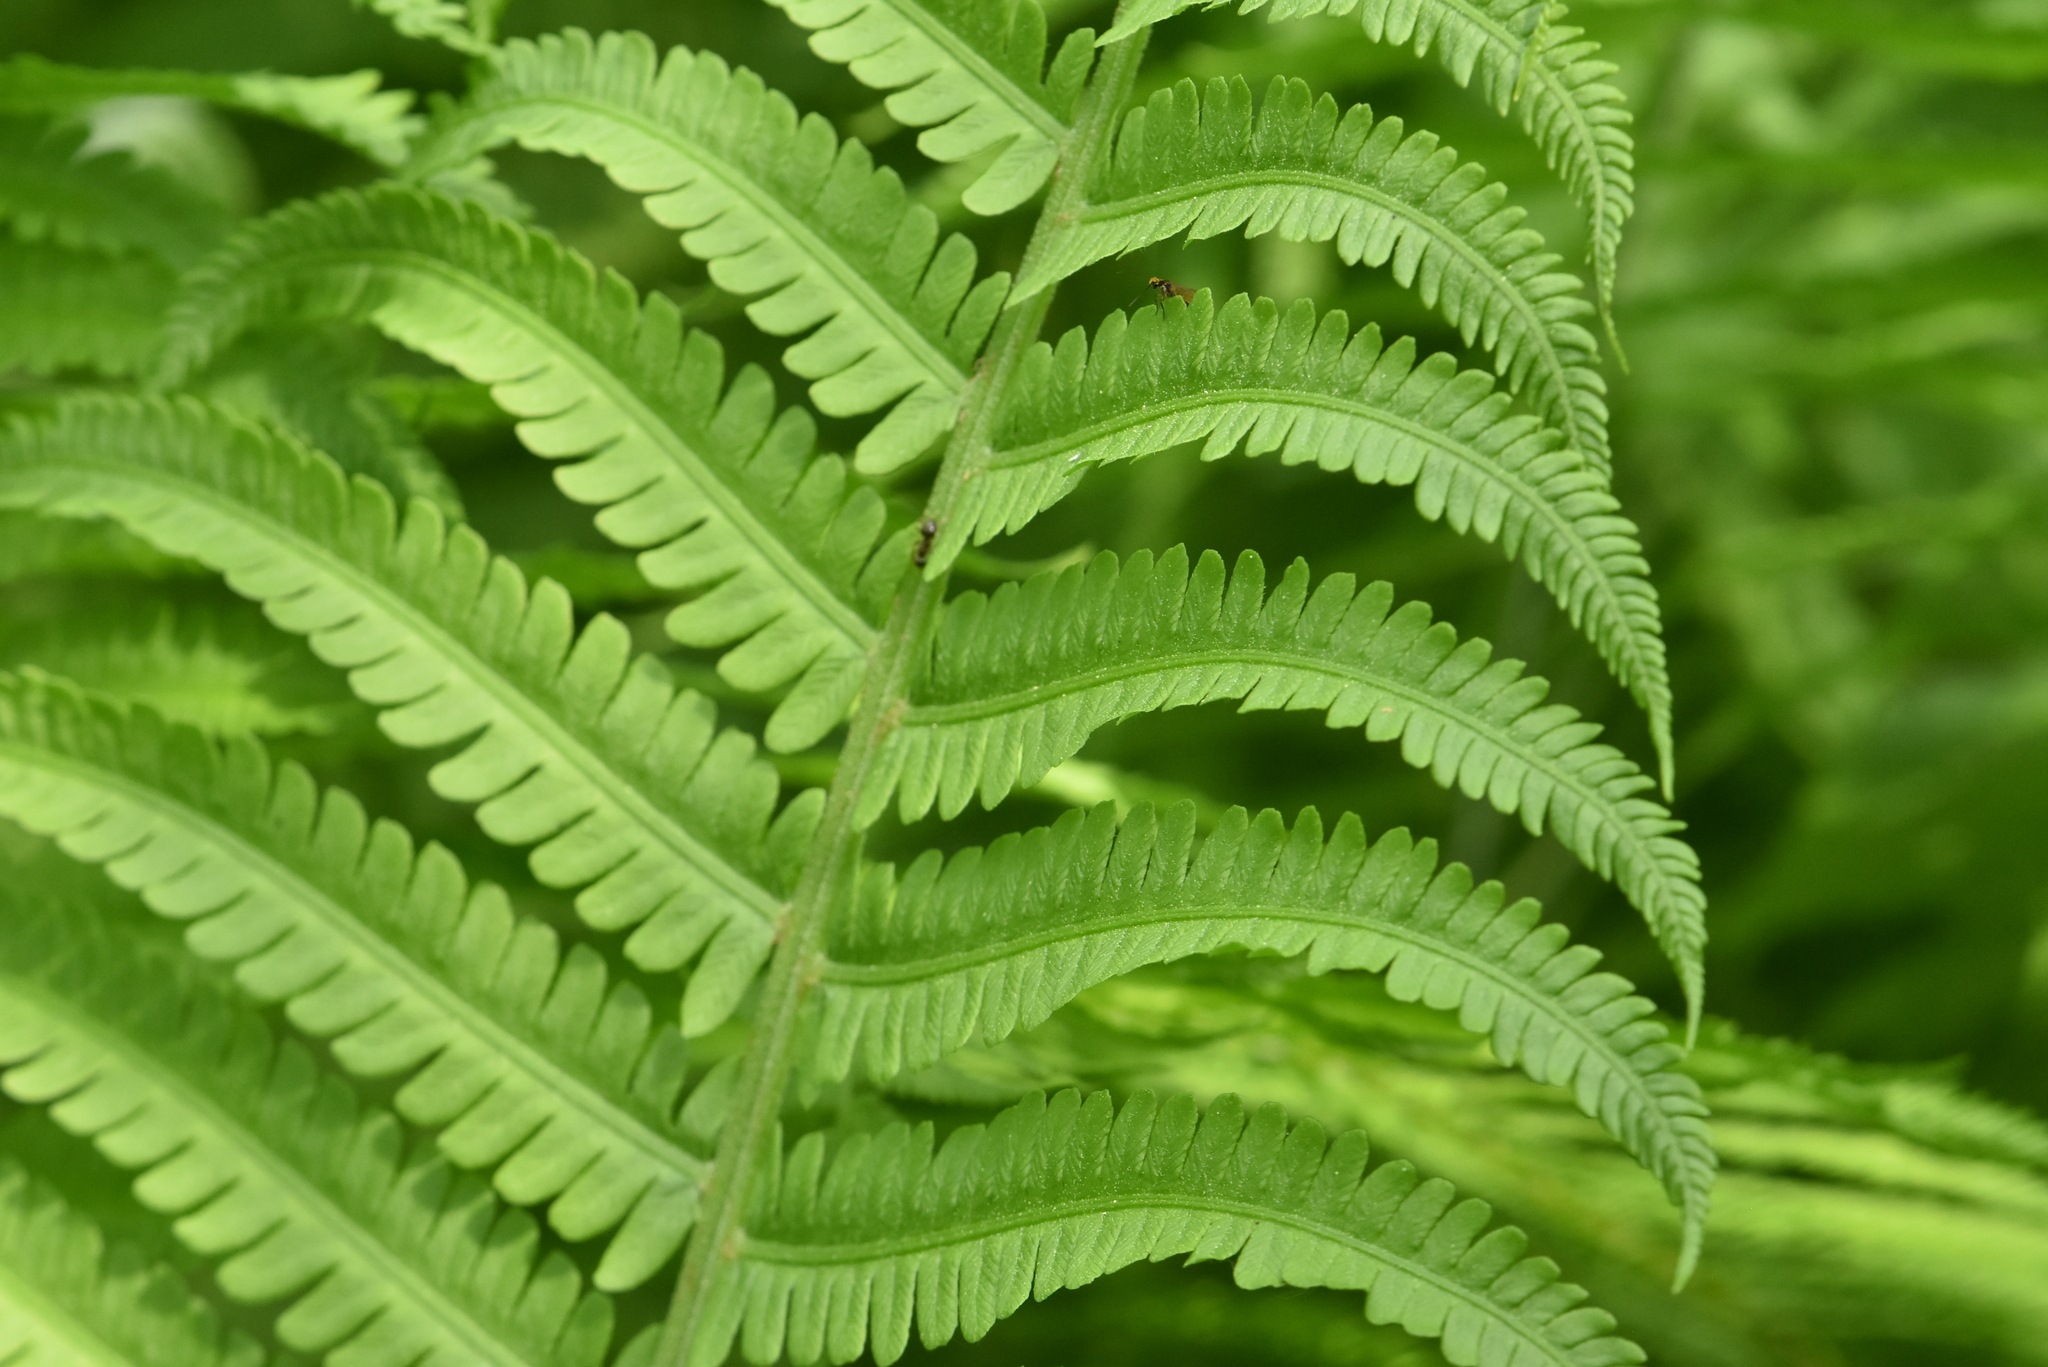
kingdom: Plantae
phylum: Tracheophyta
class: Polypodiopsida
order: Polypodiales
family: Onocleaceae
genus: Matteuccia
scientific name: Matteuccia struthiopteris
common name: Ostrich fern
